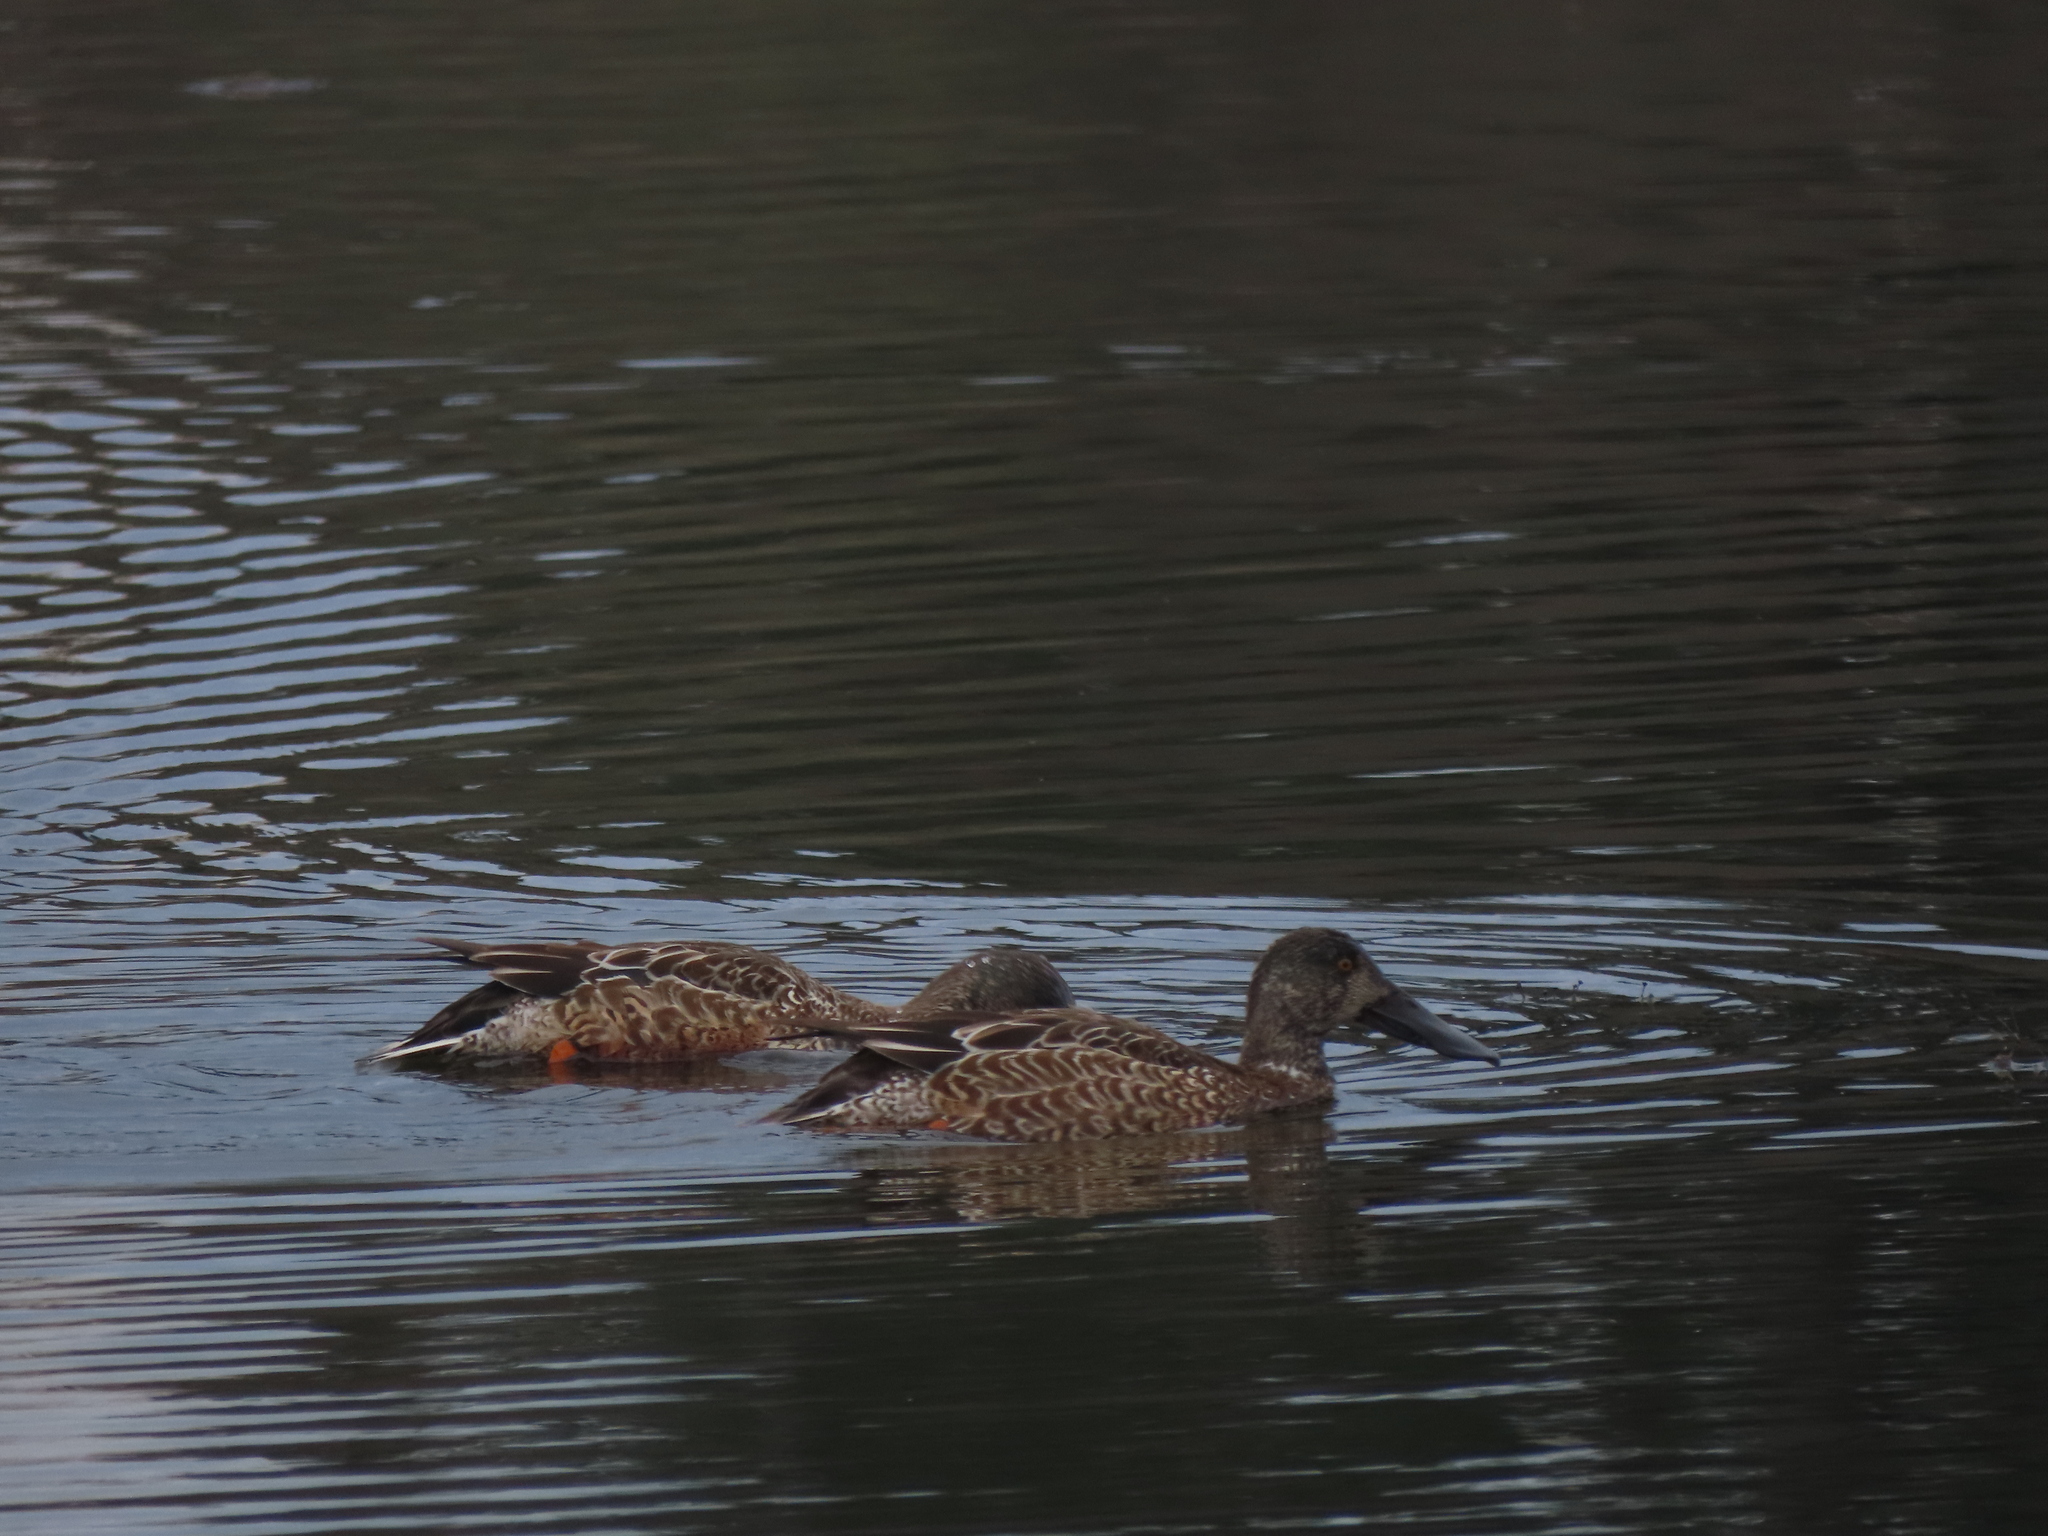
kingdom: Animalia
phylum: Chordata
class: Aves
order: Anseriformes
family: Anatidae
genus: Spatula
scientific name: Spatula clypeata
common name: Northern shoveler
